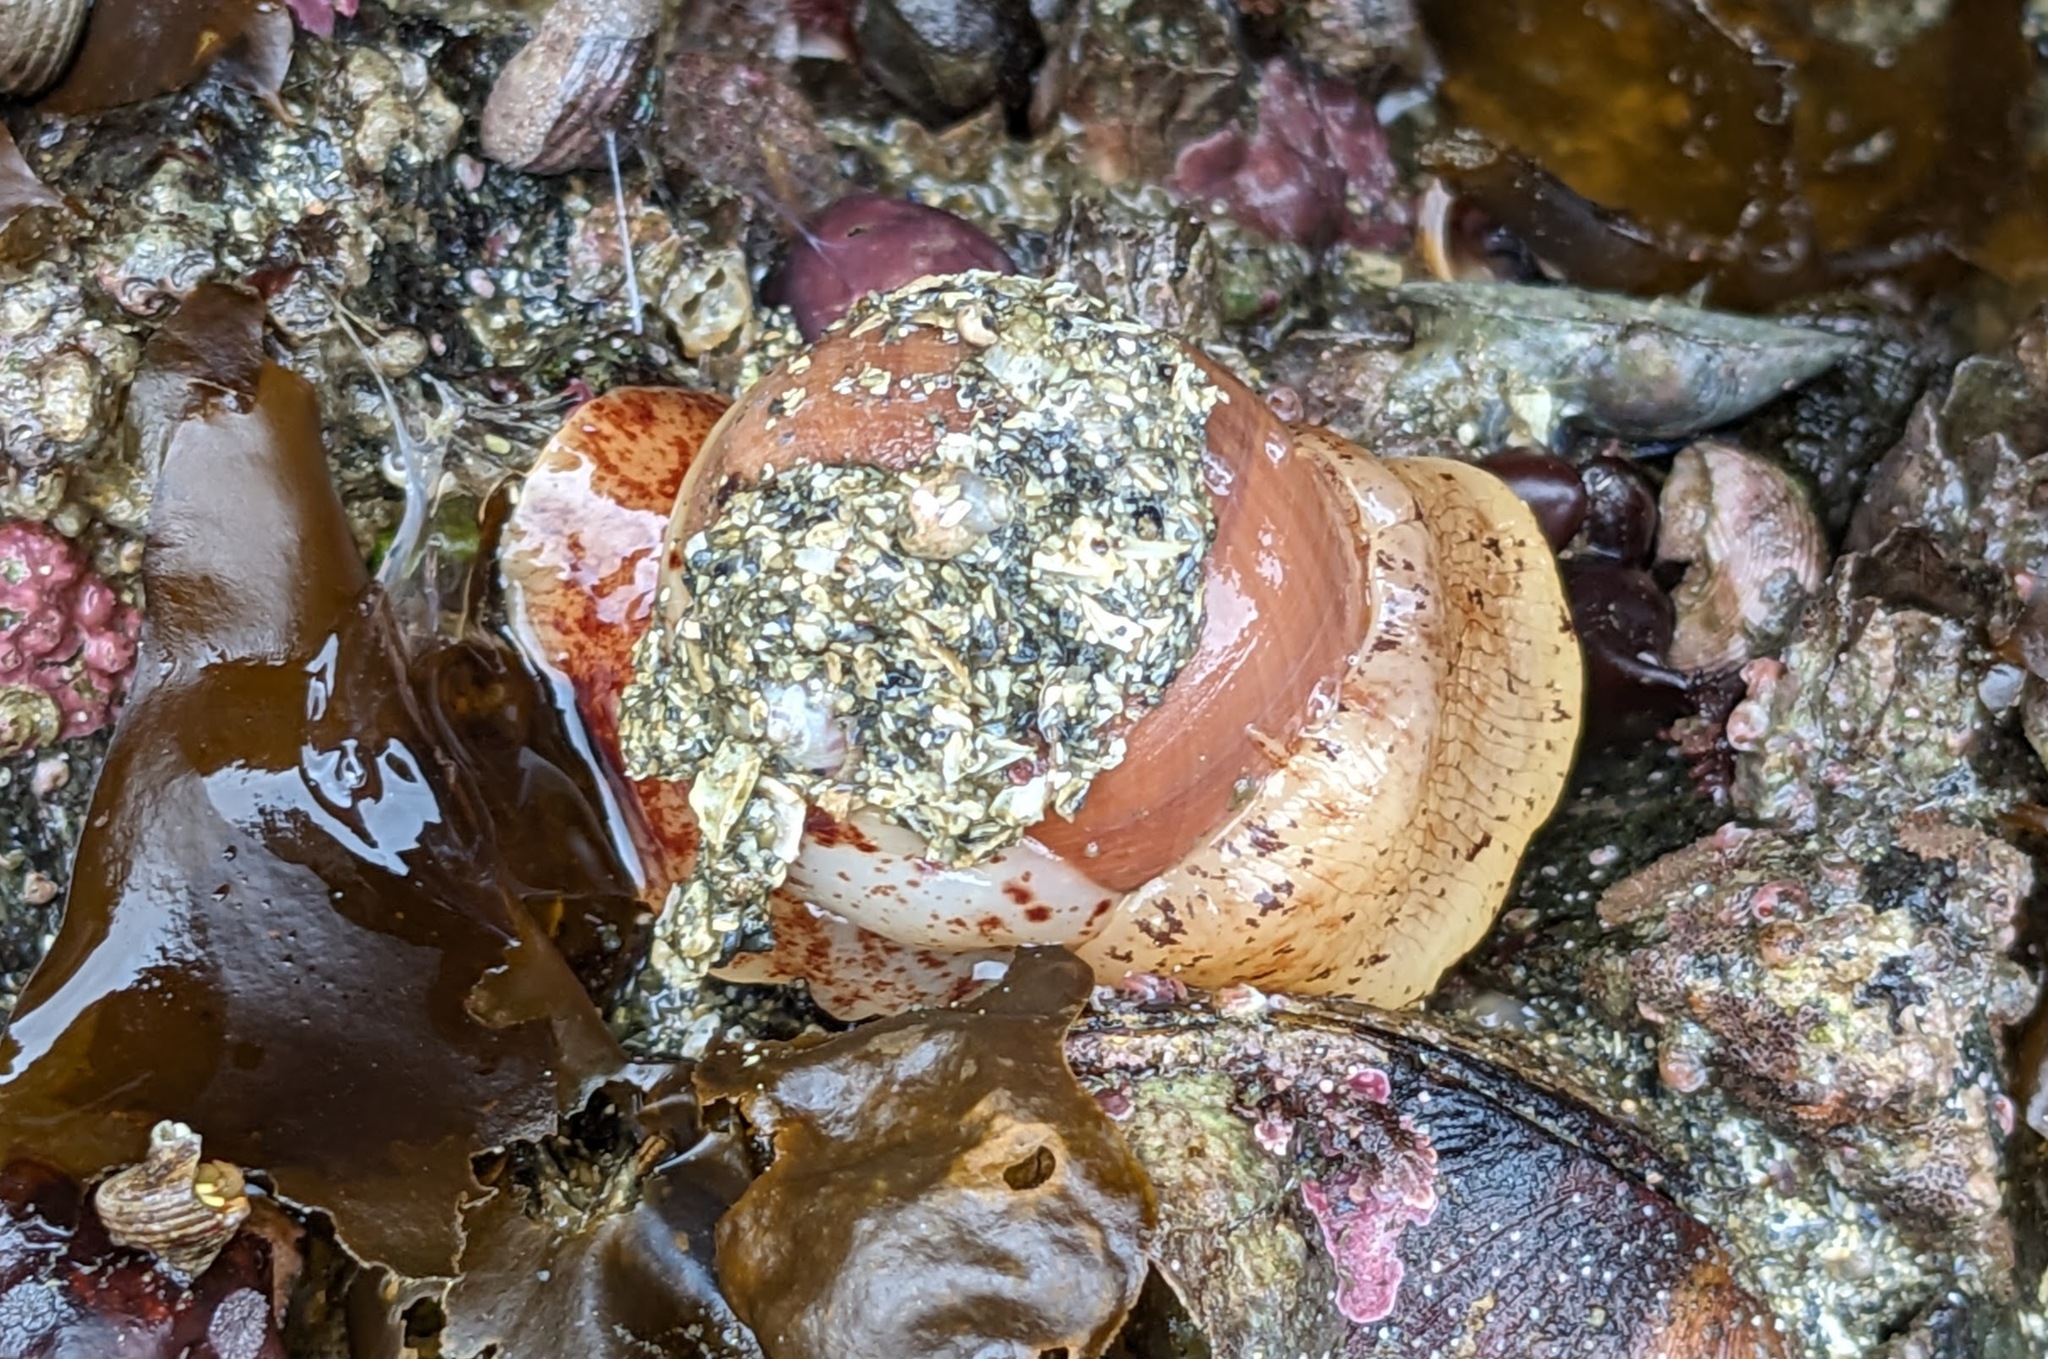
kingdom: Animalia
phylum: Mollusca
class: Gastropoda
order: Littorinimorpha
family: Naticidae
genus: Cryptonatica
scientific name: Cryptonatica aleutica
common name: Aleutian moon snail
